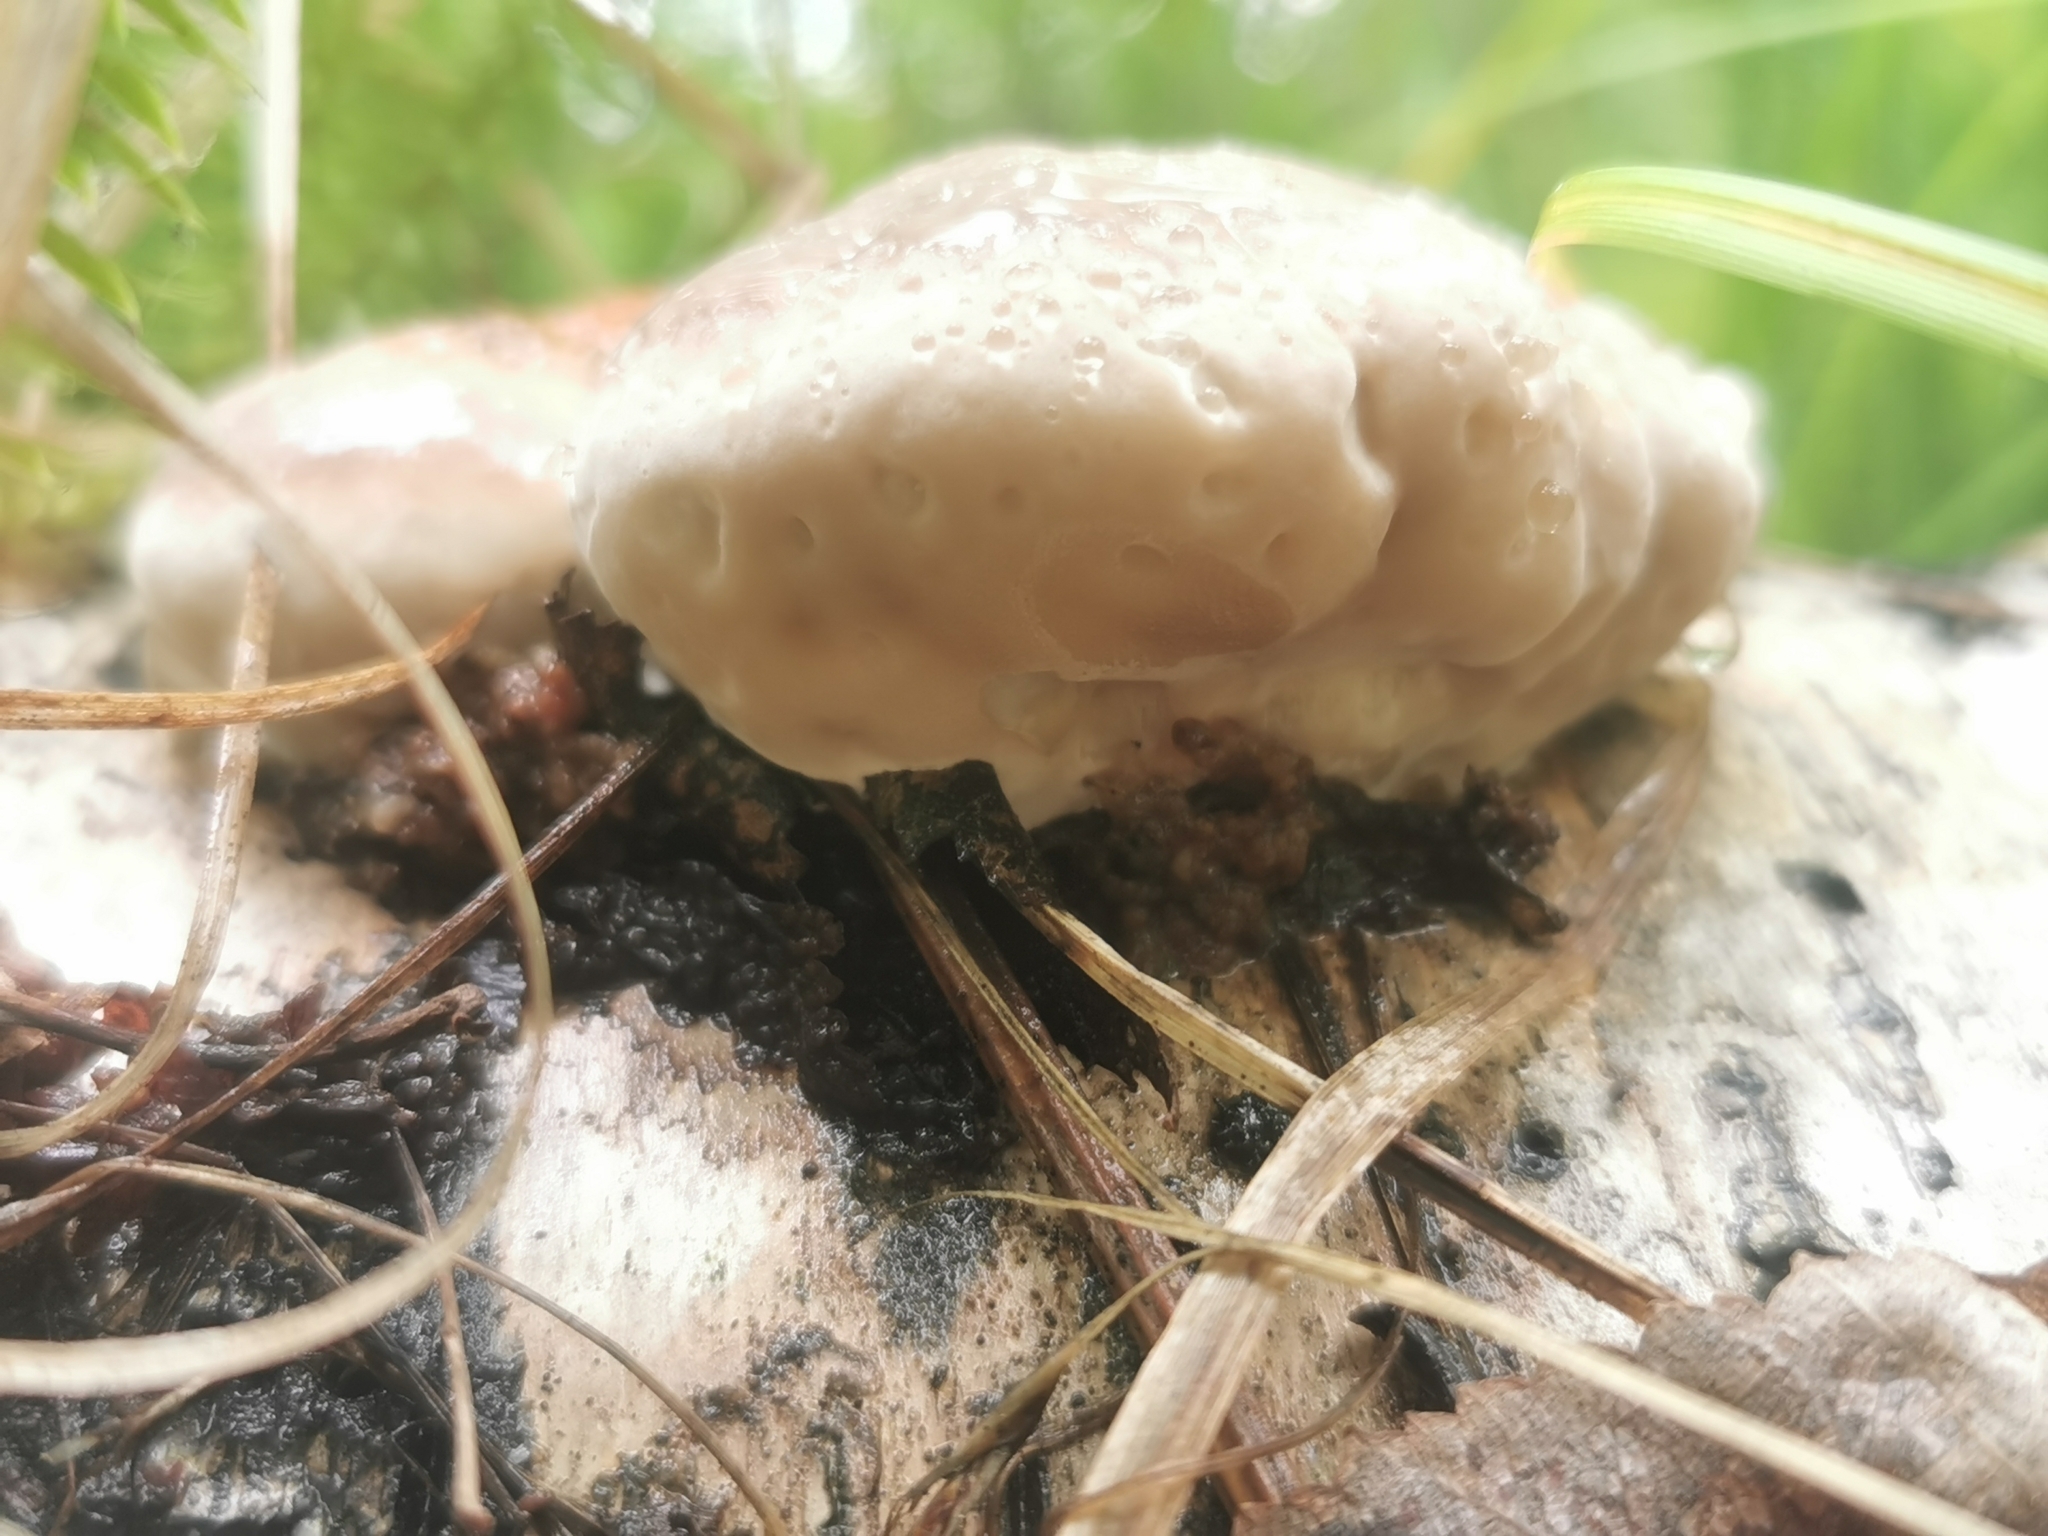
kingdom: Fungi
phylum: Basidiomycota
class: Agaricomycetes
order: Polyporales
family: Fomitopsidaceae
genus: Fomitopsis
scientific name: Fomitopsis pinicola
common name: Red-belted bracket
